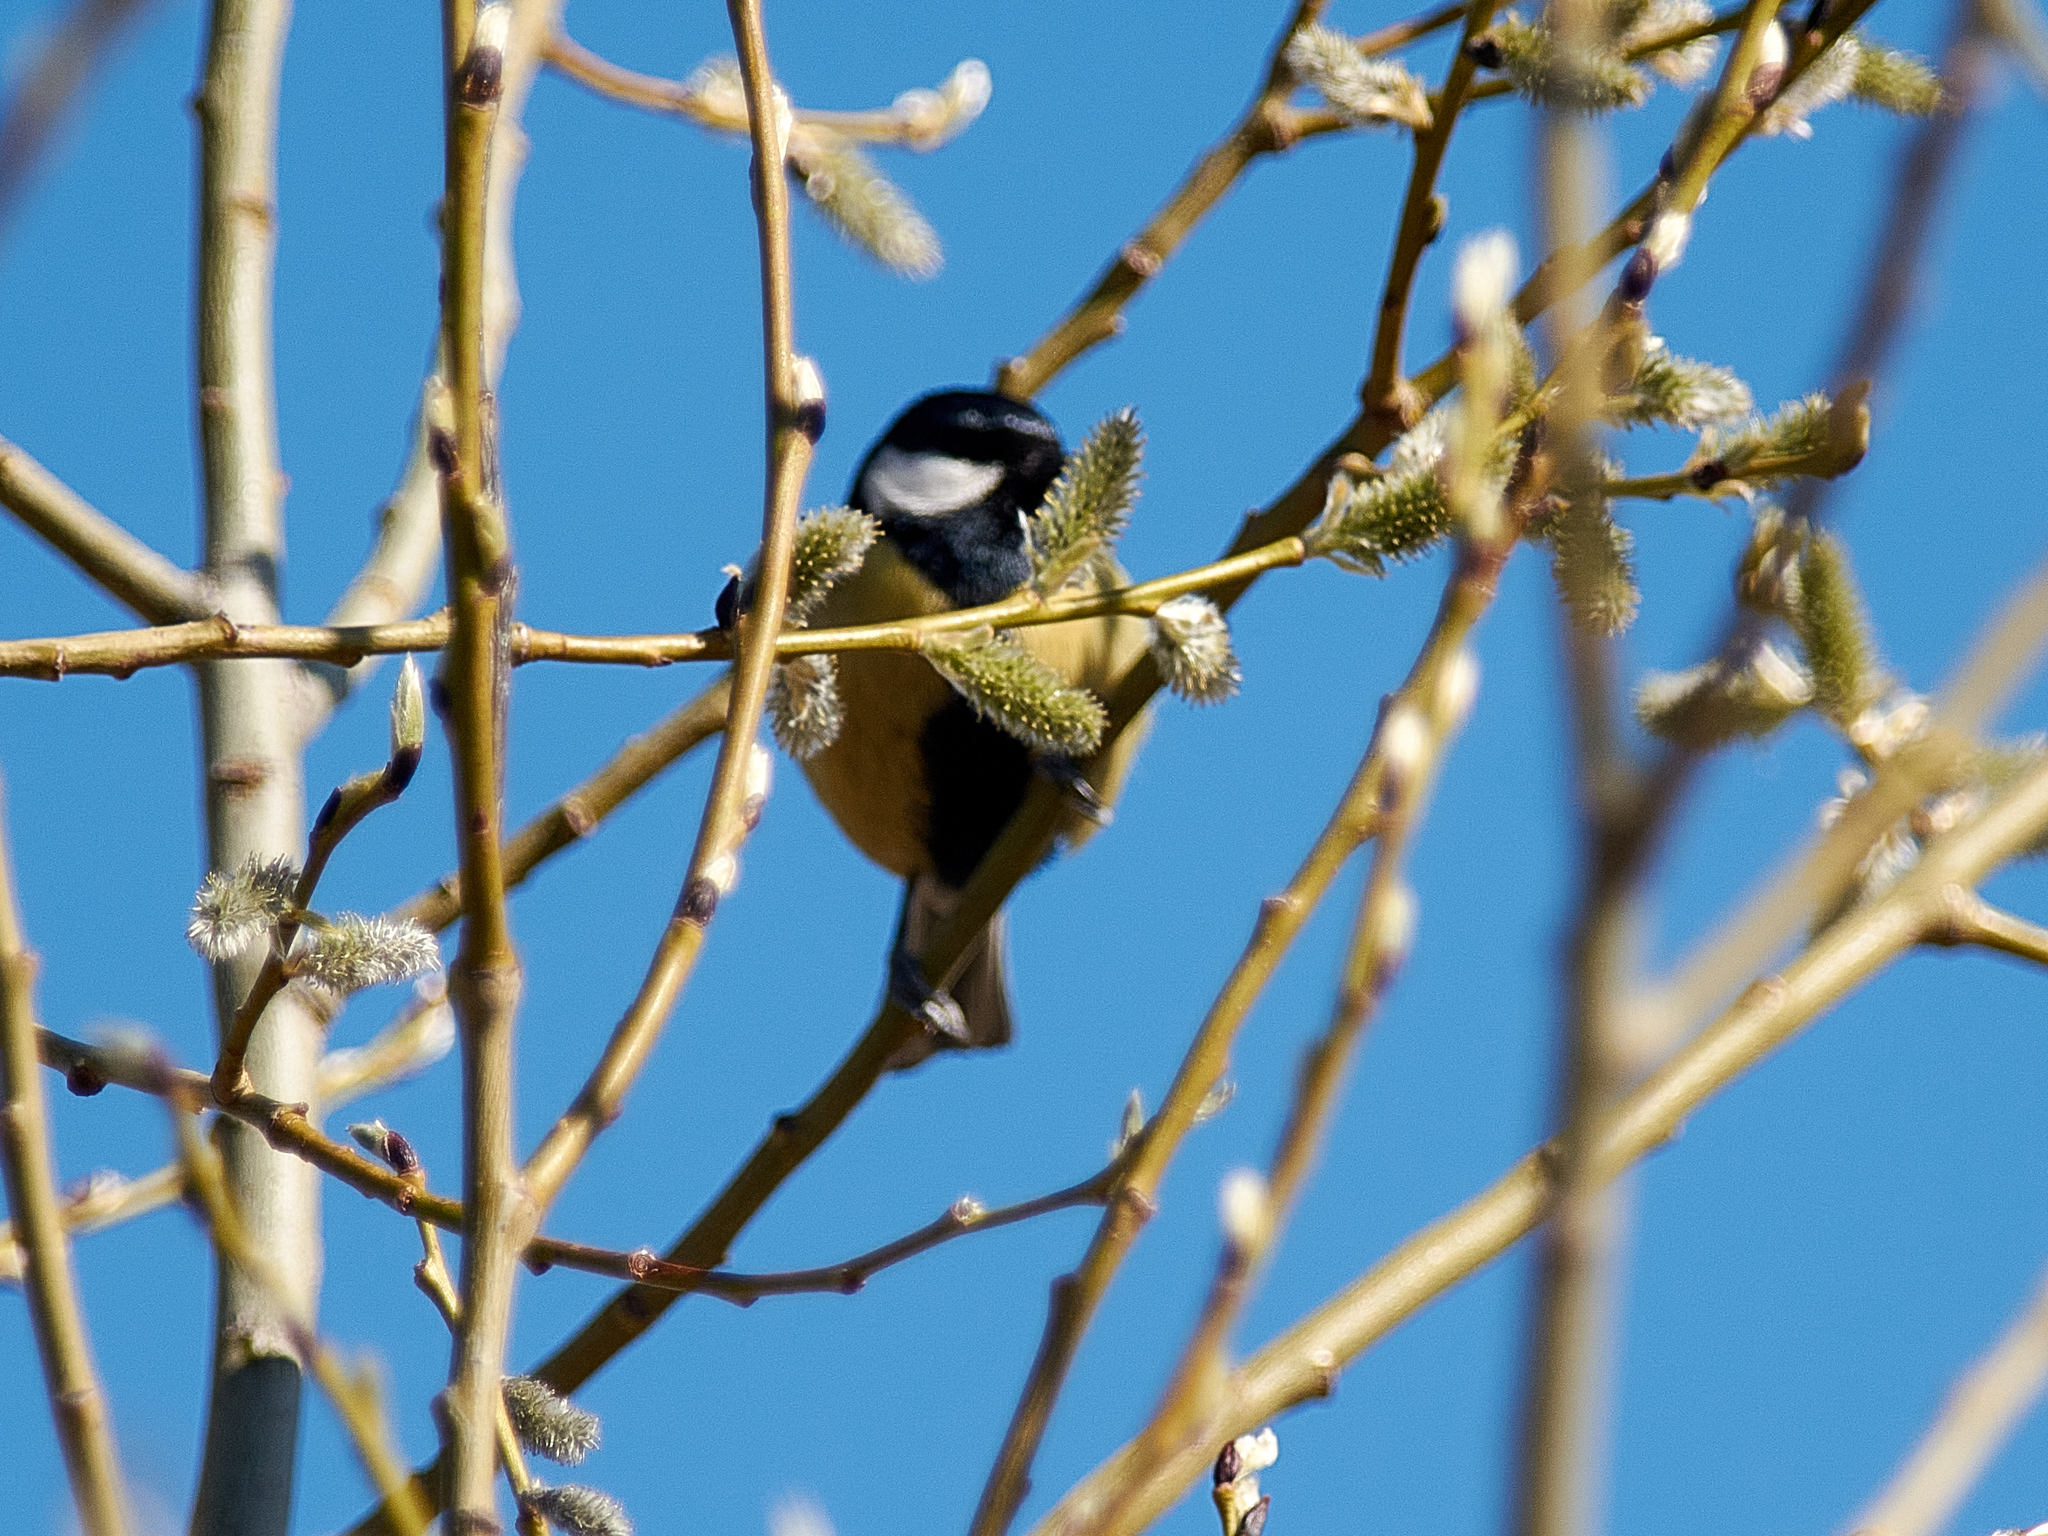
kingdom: Animalia
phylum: Chordata
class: Aves
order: Passeriformes
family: Paridae
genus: Parus
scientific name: Parus major
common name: Great tit
